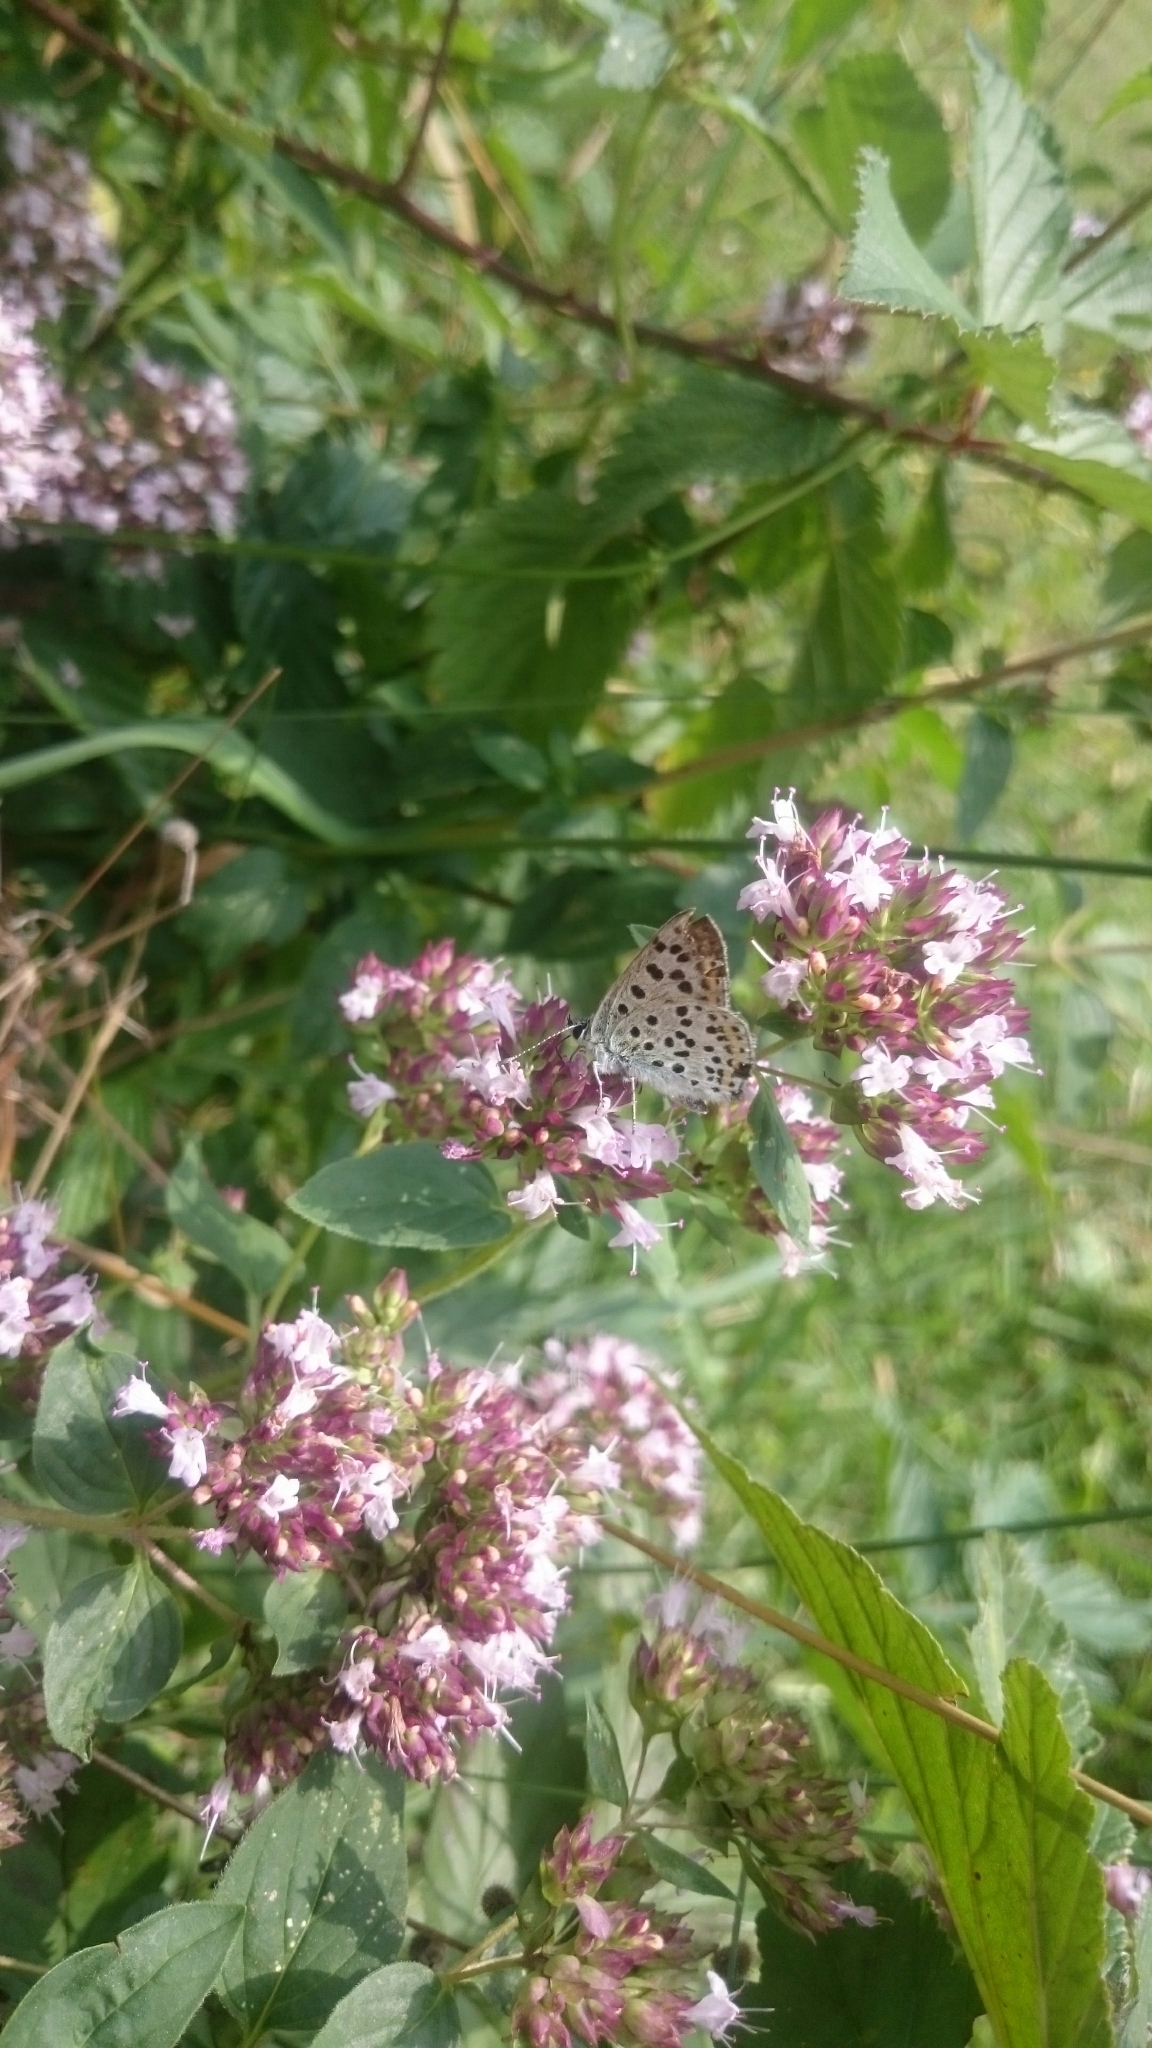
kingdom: Animalia
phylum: Arthropoda
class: Insecta
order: Lepidoptera
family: Lycaenidae
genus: Loweia
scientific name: Loweia tityrus
